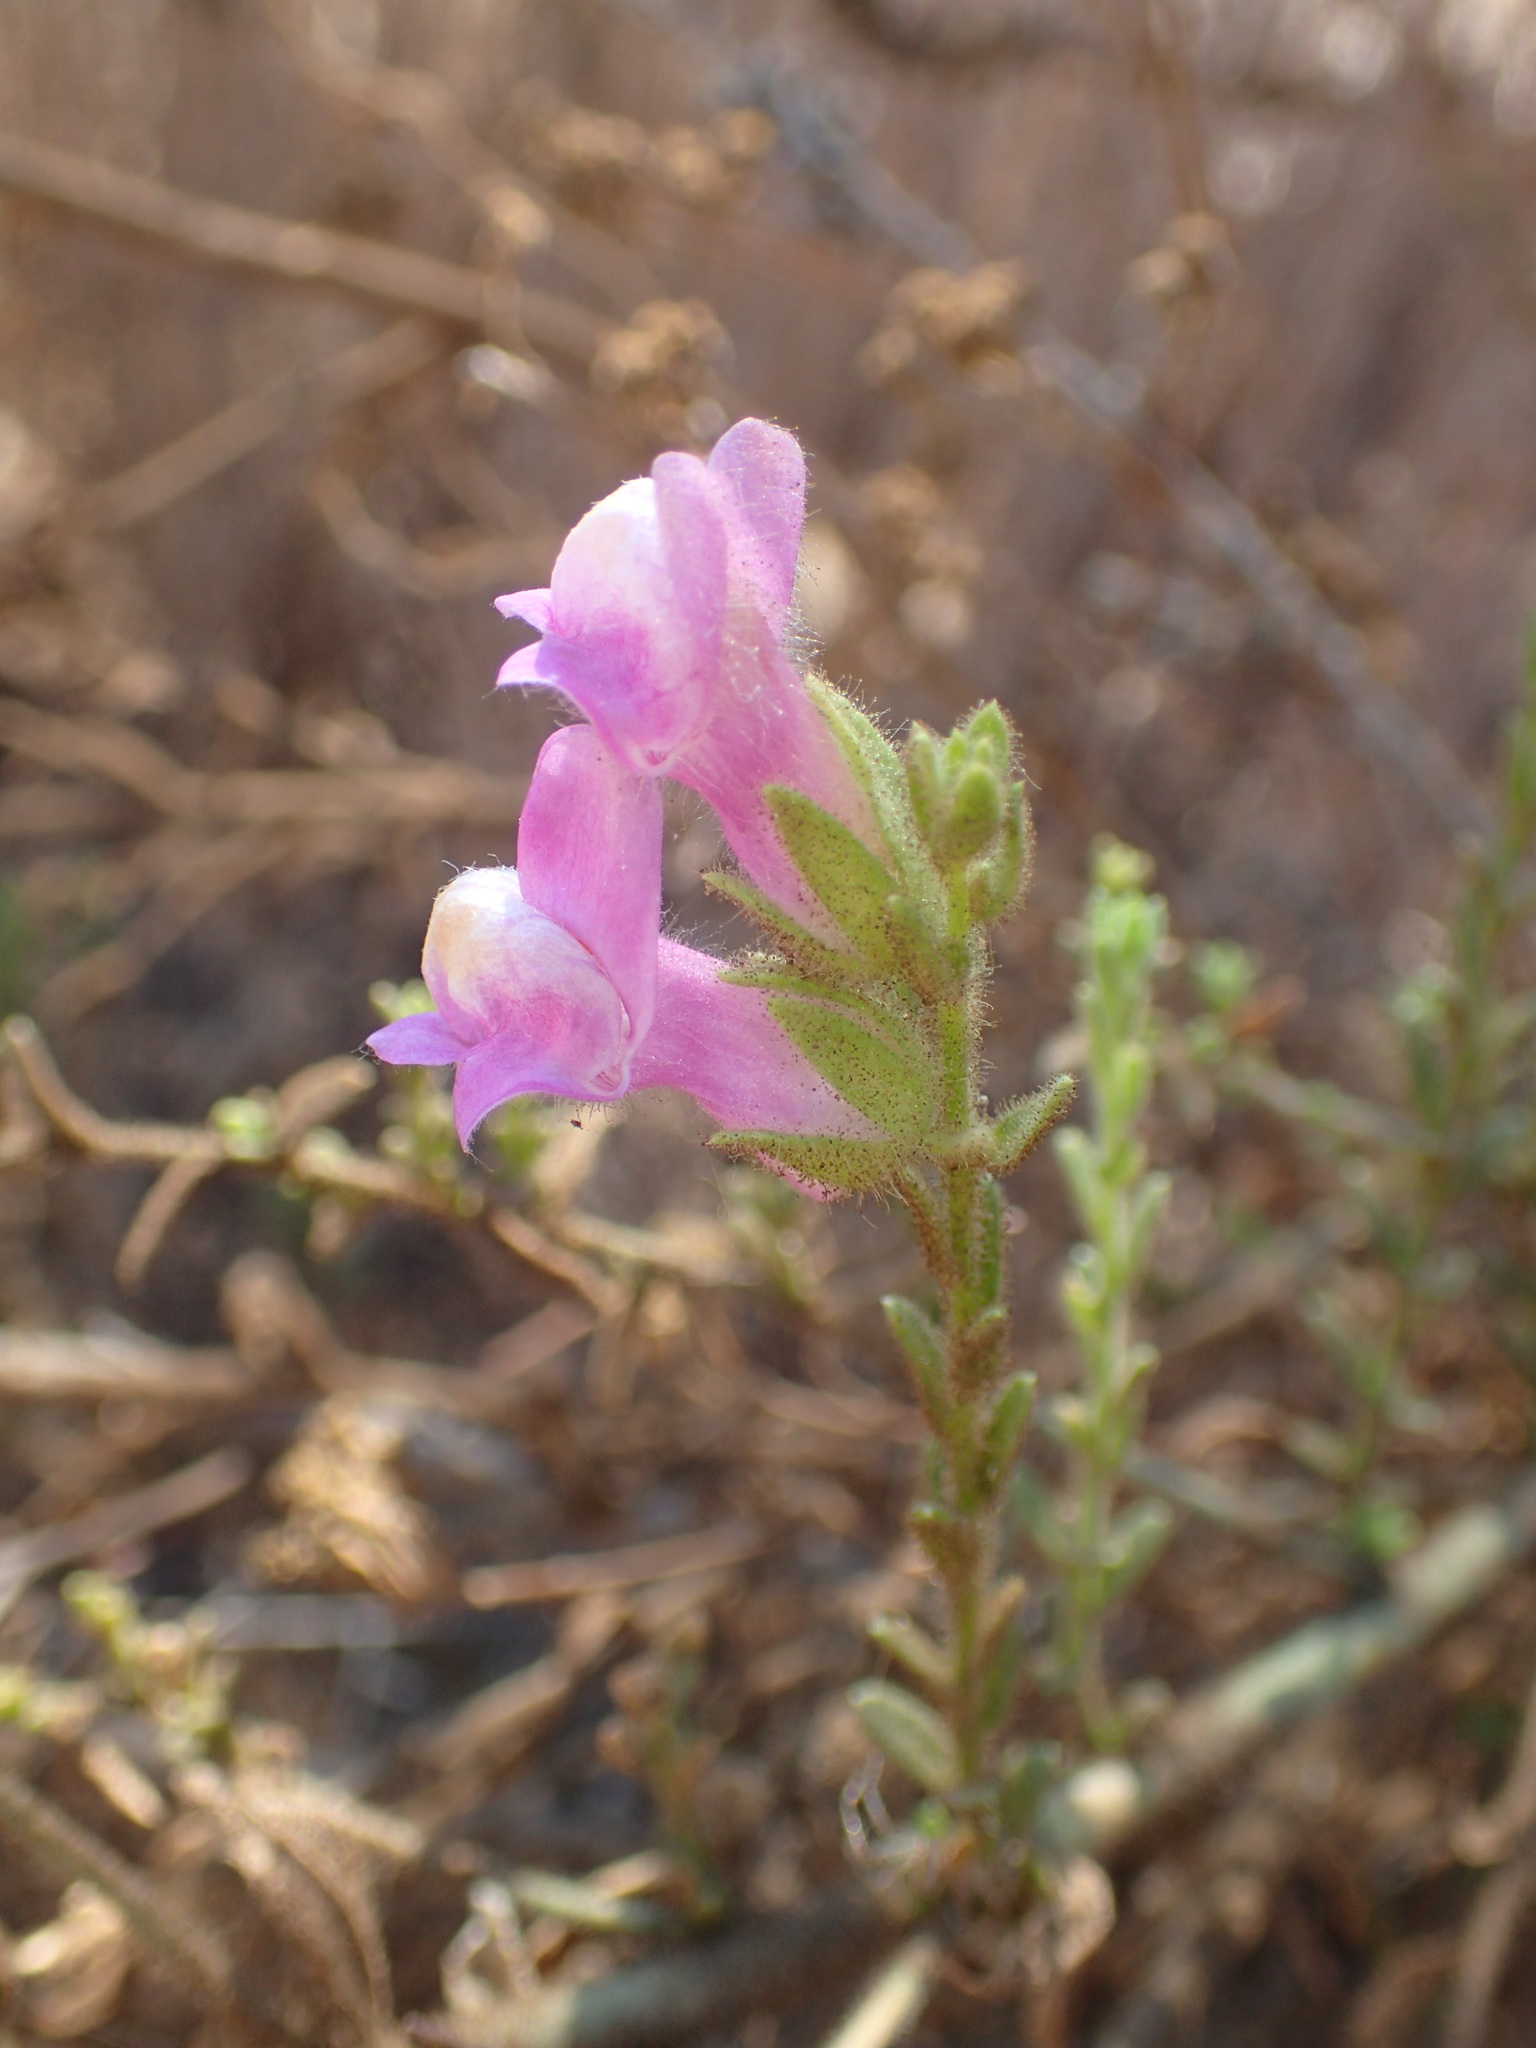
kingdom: Plantae
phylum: Tracheophyta
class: Magnoliopsida
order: Lamiales
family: Plantaginaceae
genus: Sairocarpus
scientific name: Sairocarpus multiflorus
